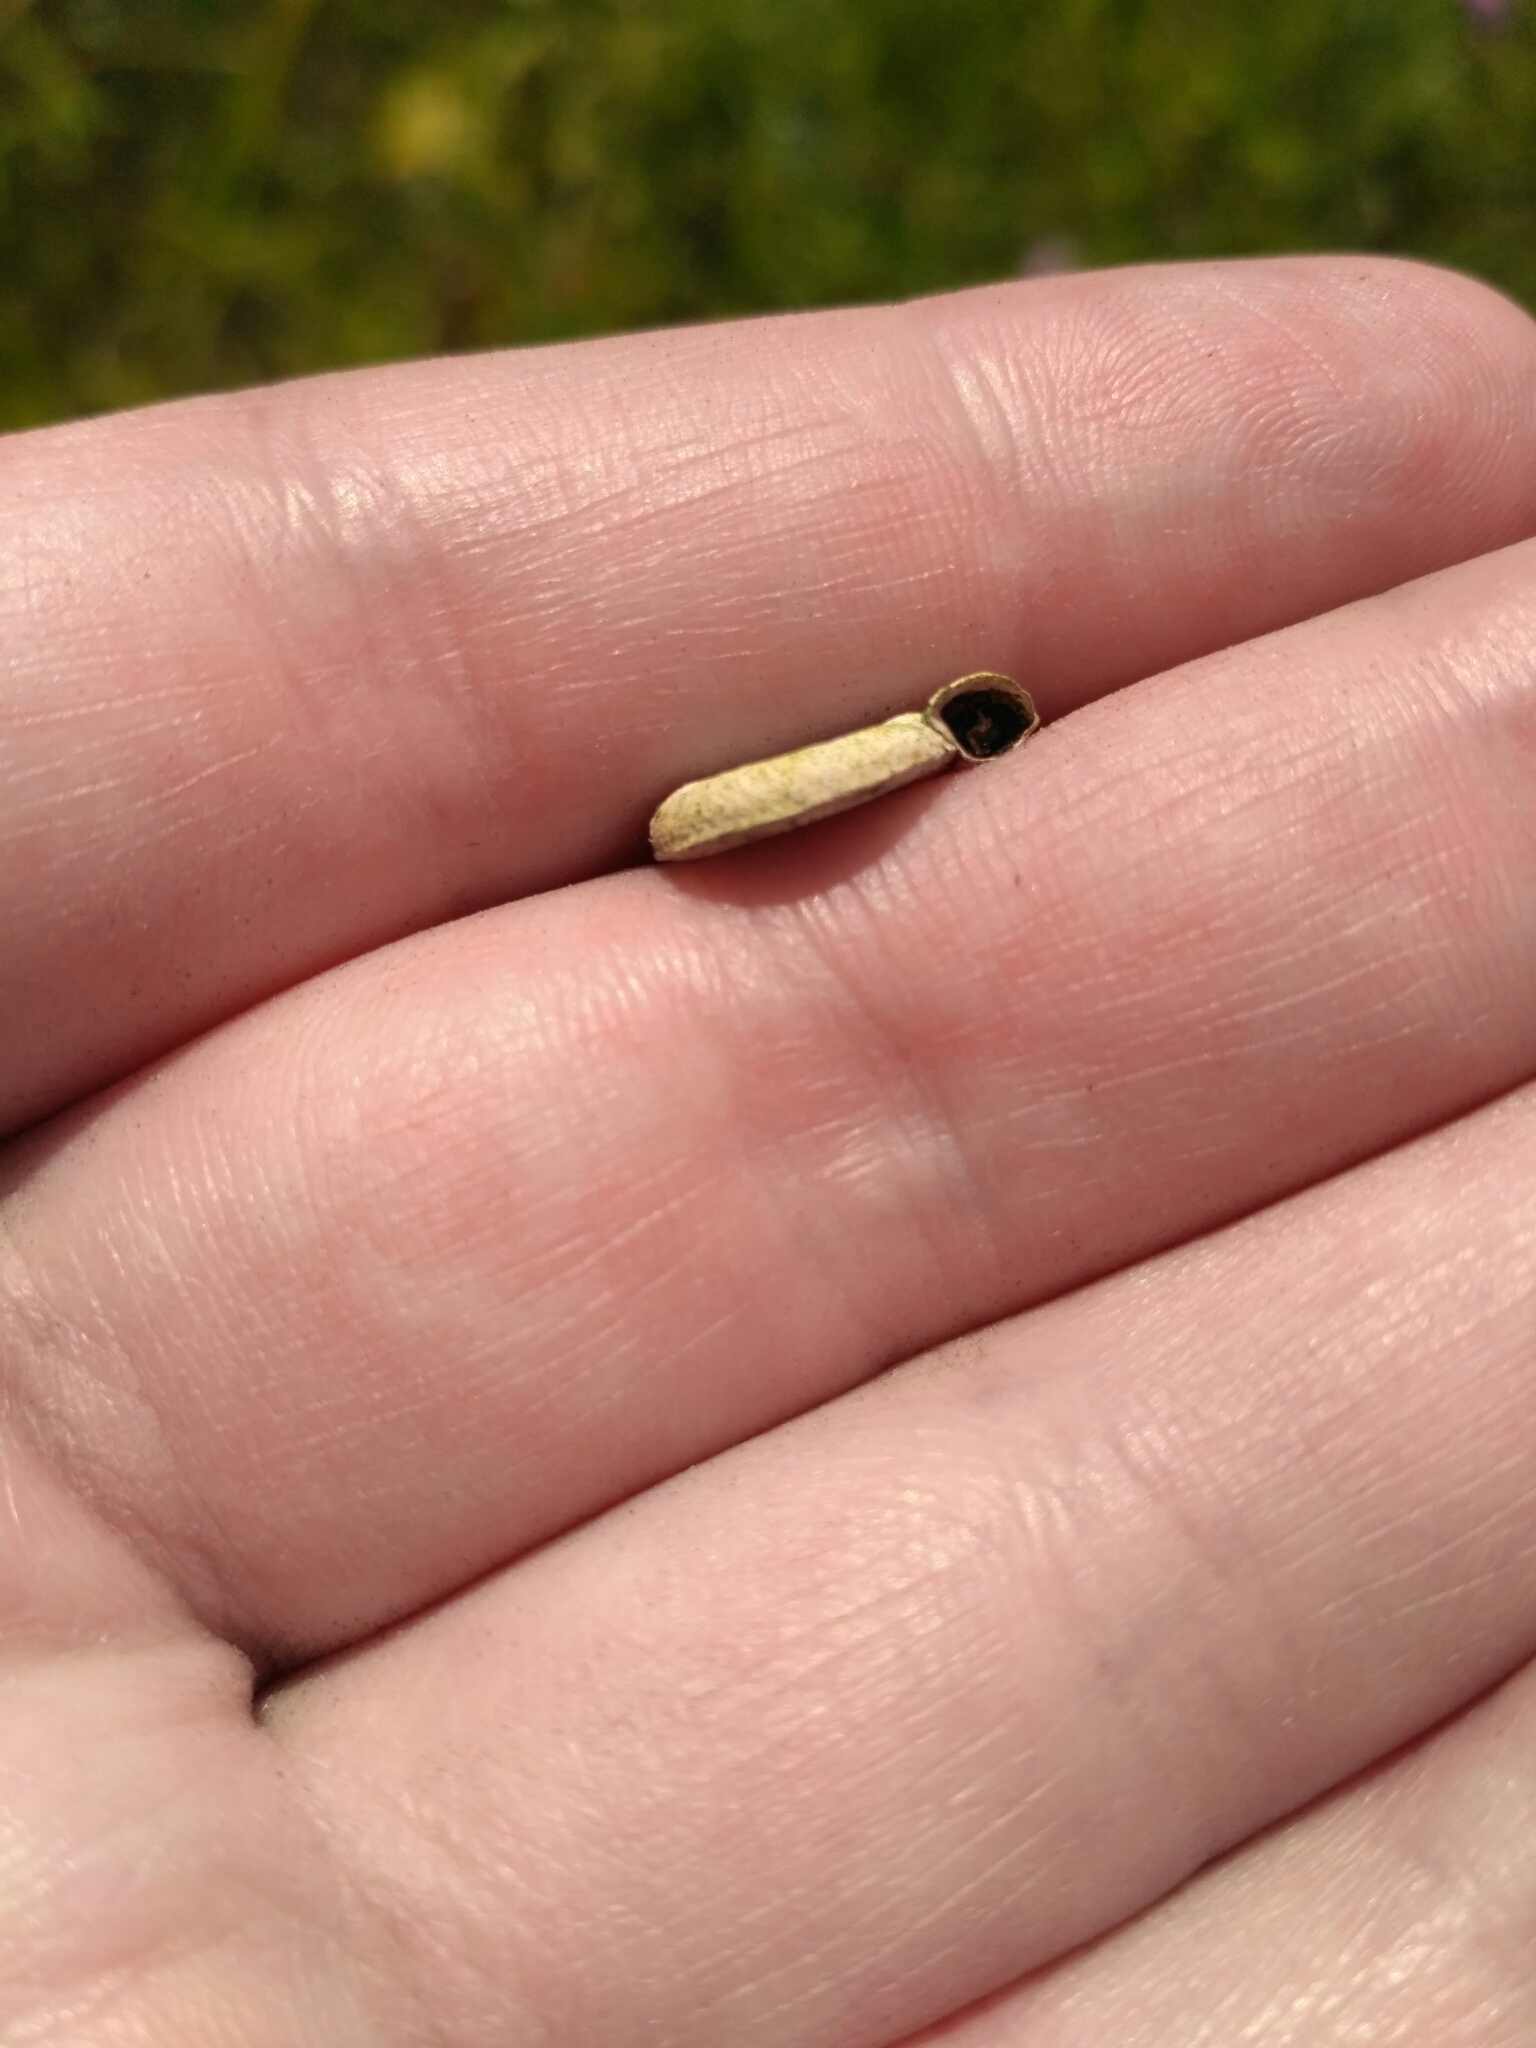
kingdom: Animalia
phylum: Mollusca
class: Gastropoda
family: Planorbidae
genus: Planorbis
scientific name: Planorbis planorbis
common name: Margined ramshorn
